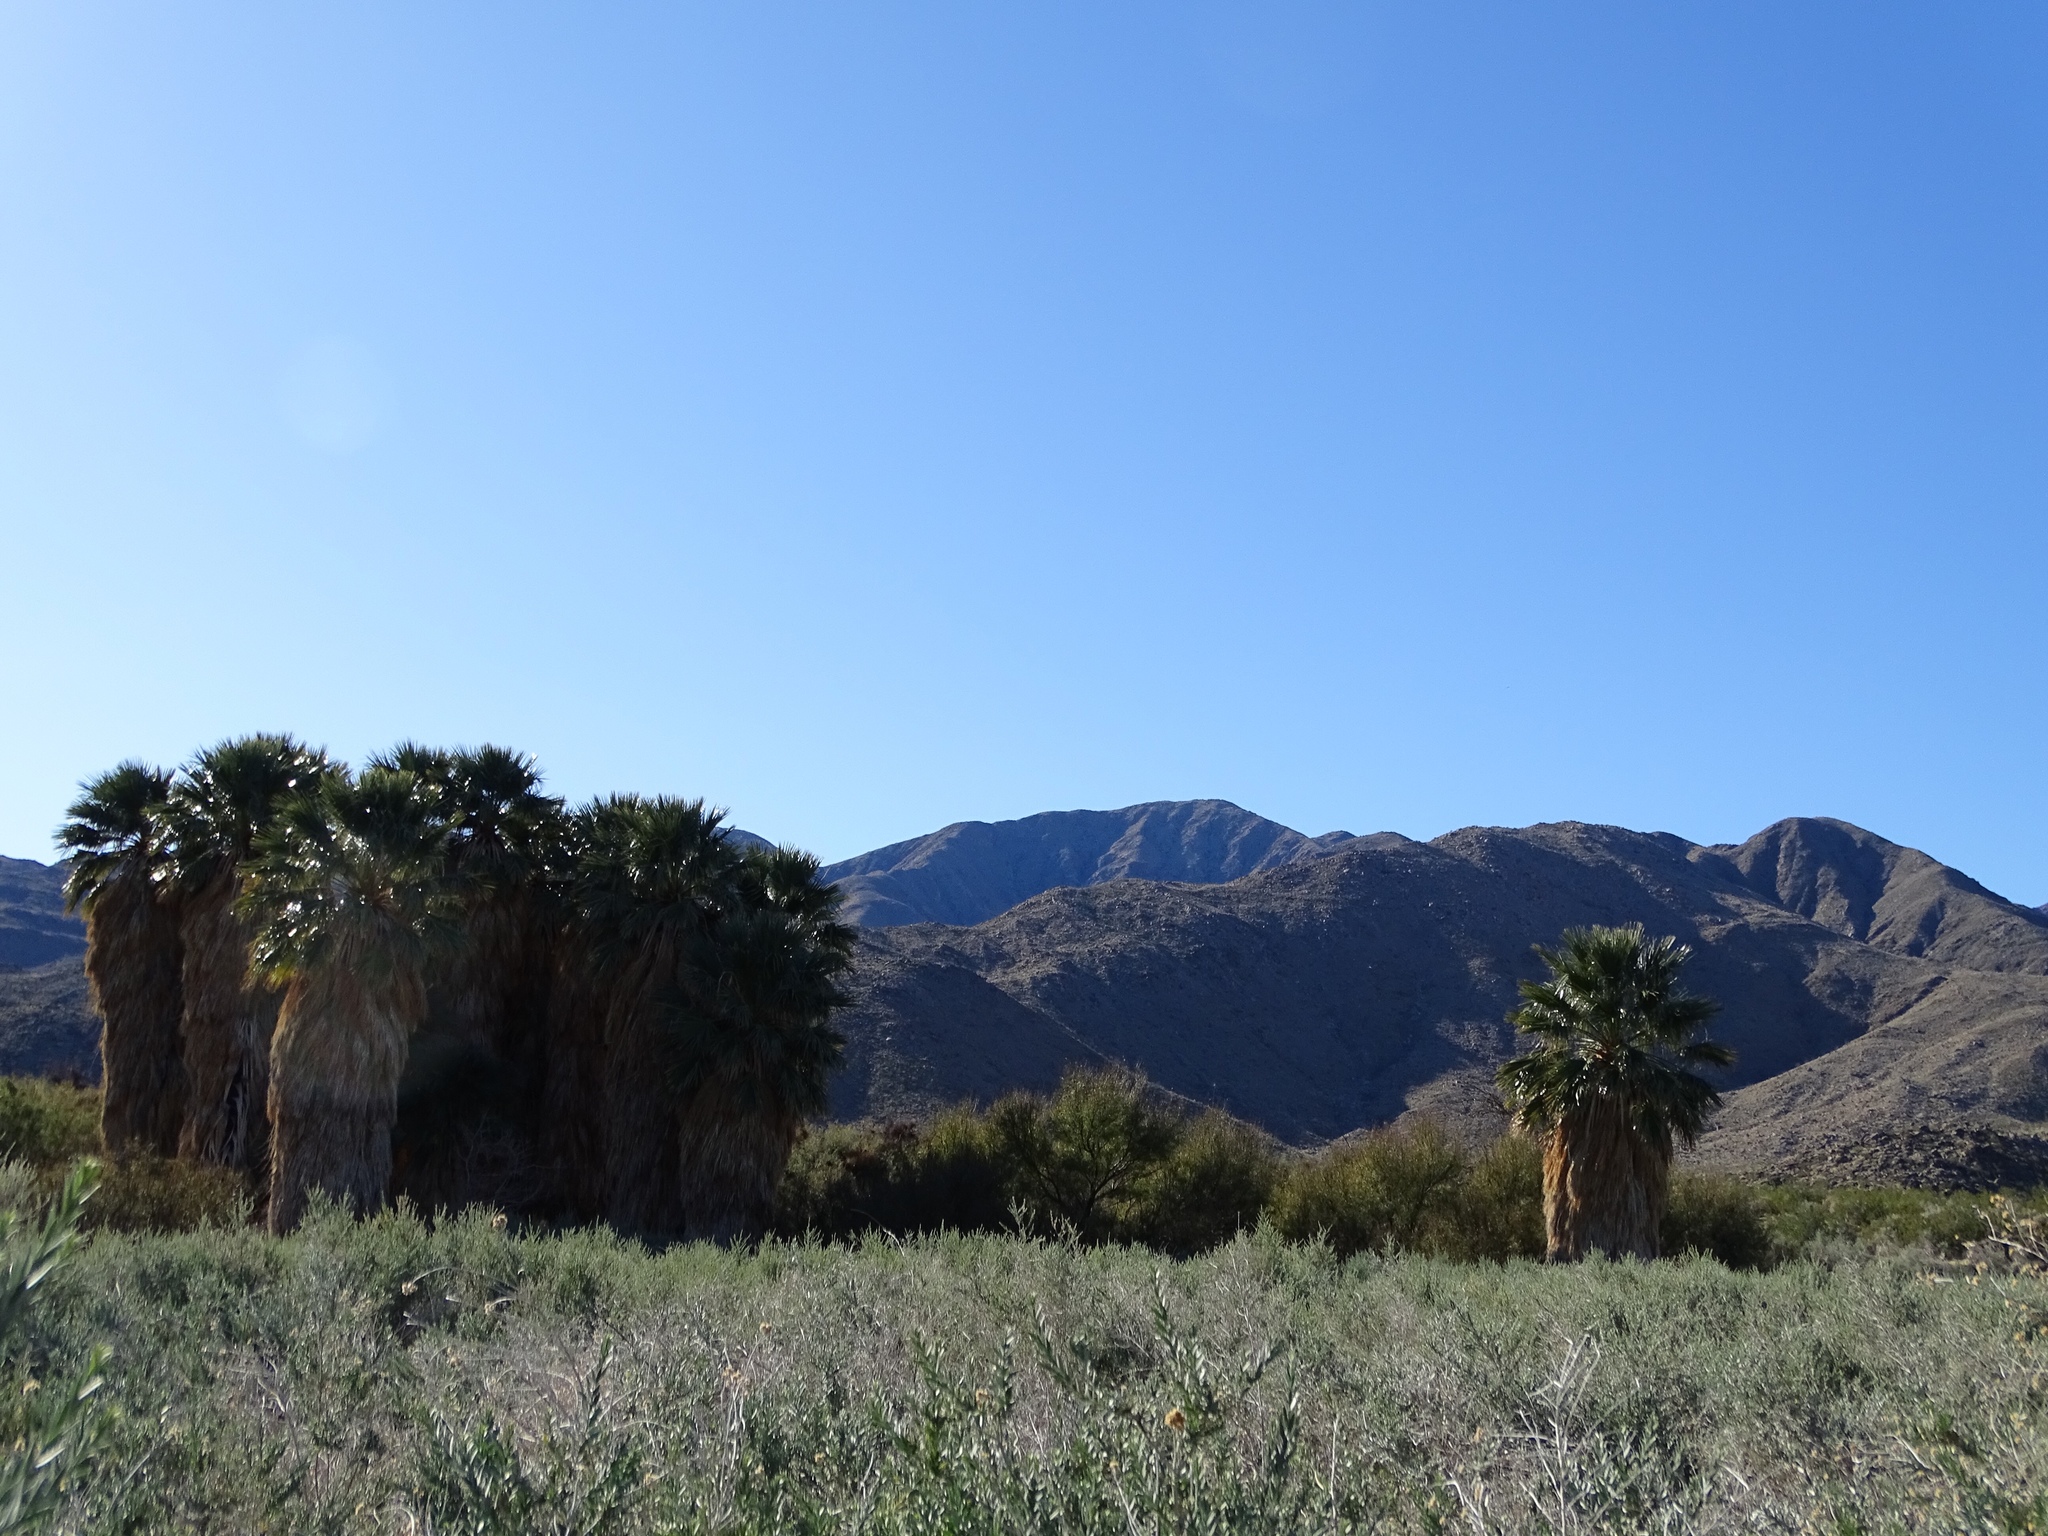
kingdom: Plantae
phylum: Tracheophyta
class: Liliopsida
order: Arecales
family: Arecaceae
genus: Washingtonia
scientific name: Washingtonia filifera
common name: California fan palm
